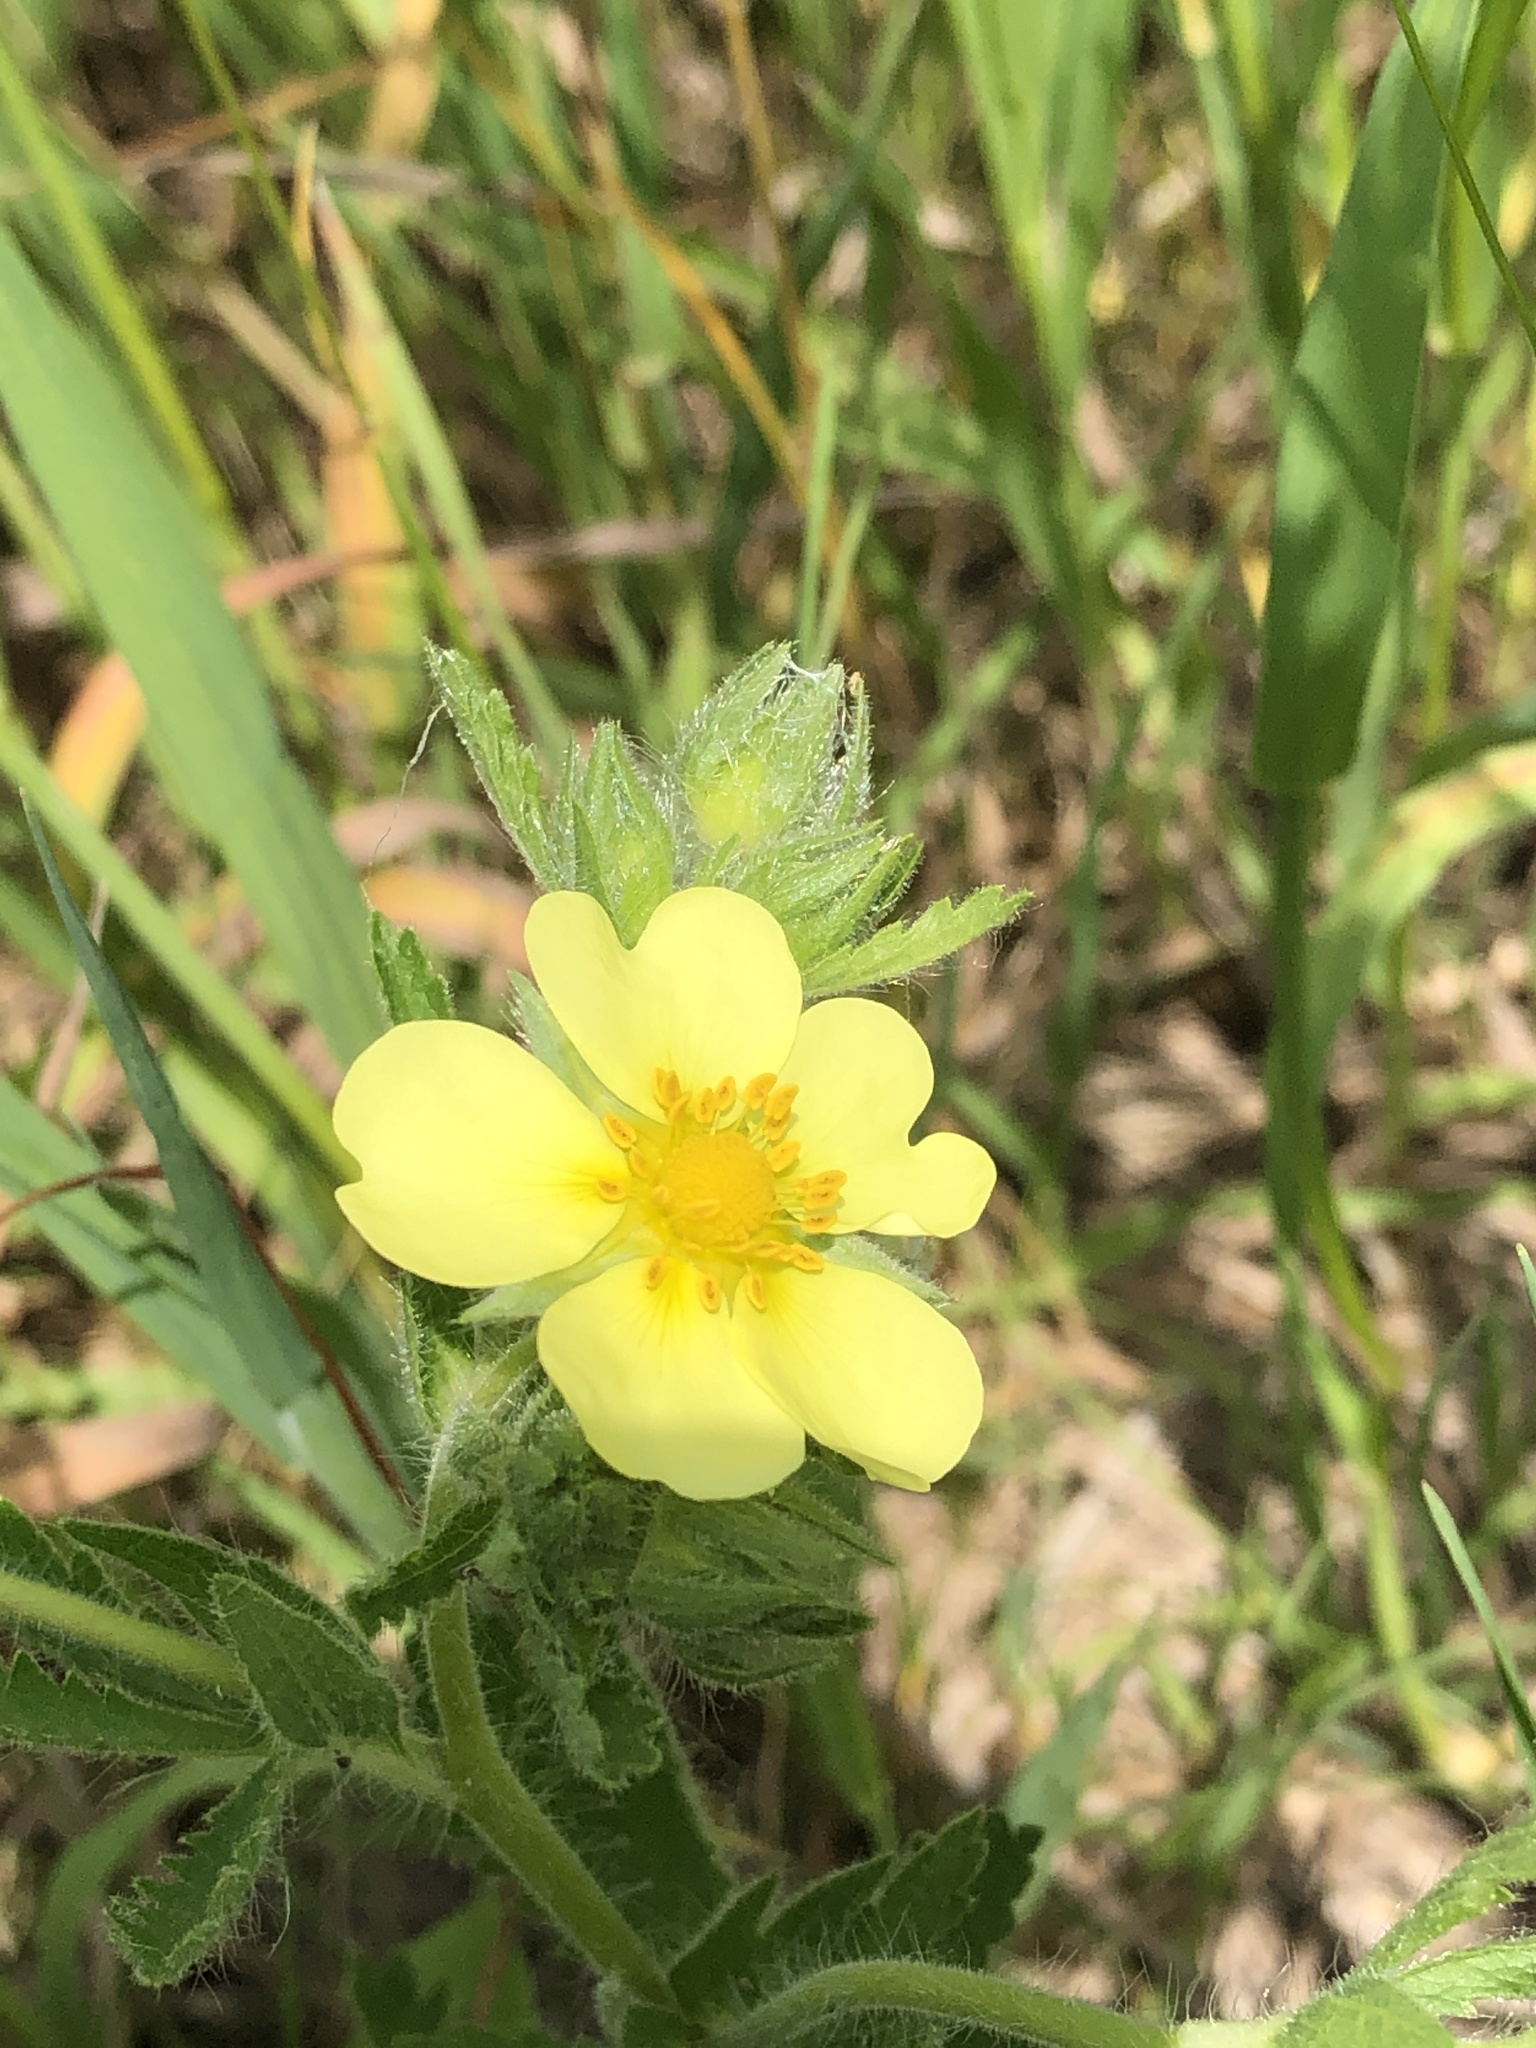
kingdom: Plantae
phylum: Tracheophyta
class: Magnoliopsida
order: Rosales
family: Rosaceae
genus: Potentilla
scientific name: Potentilla recta
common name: Sulphur cinquefoil
